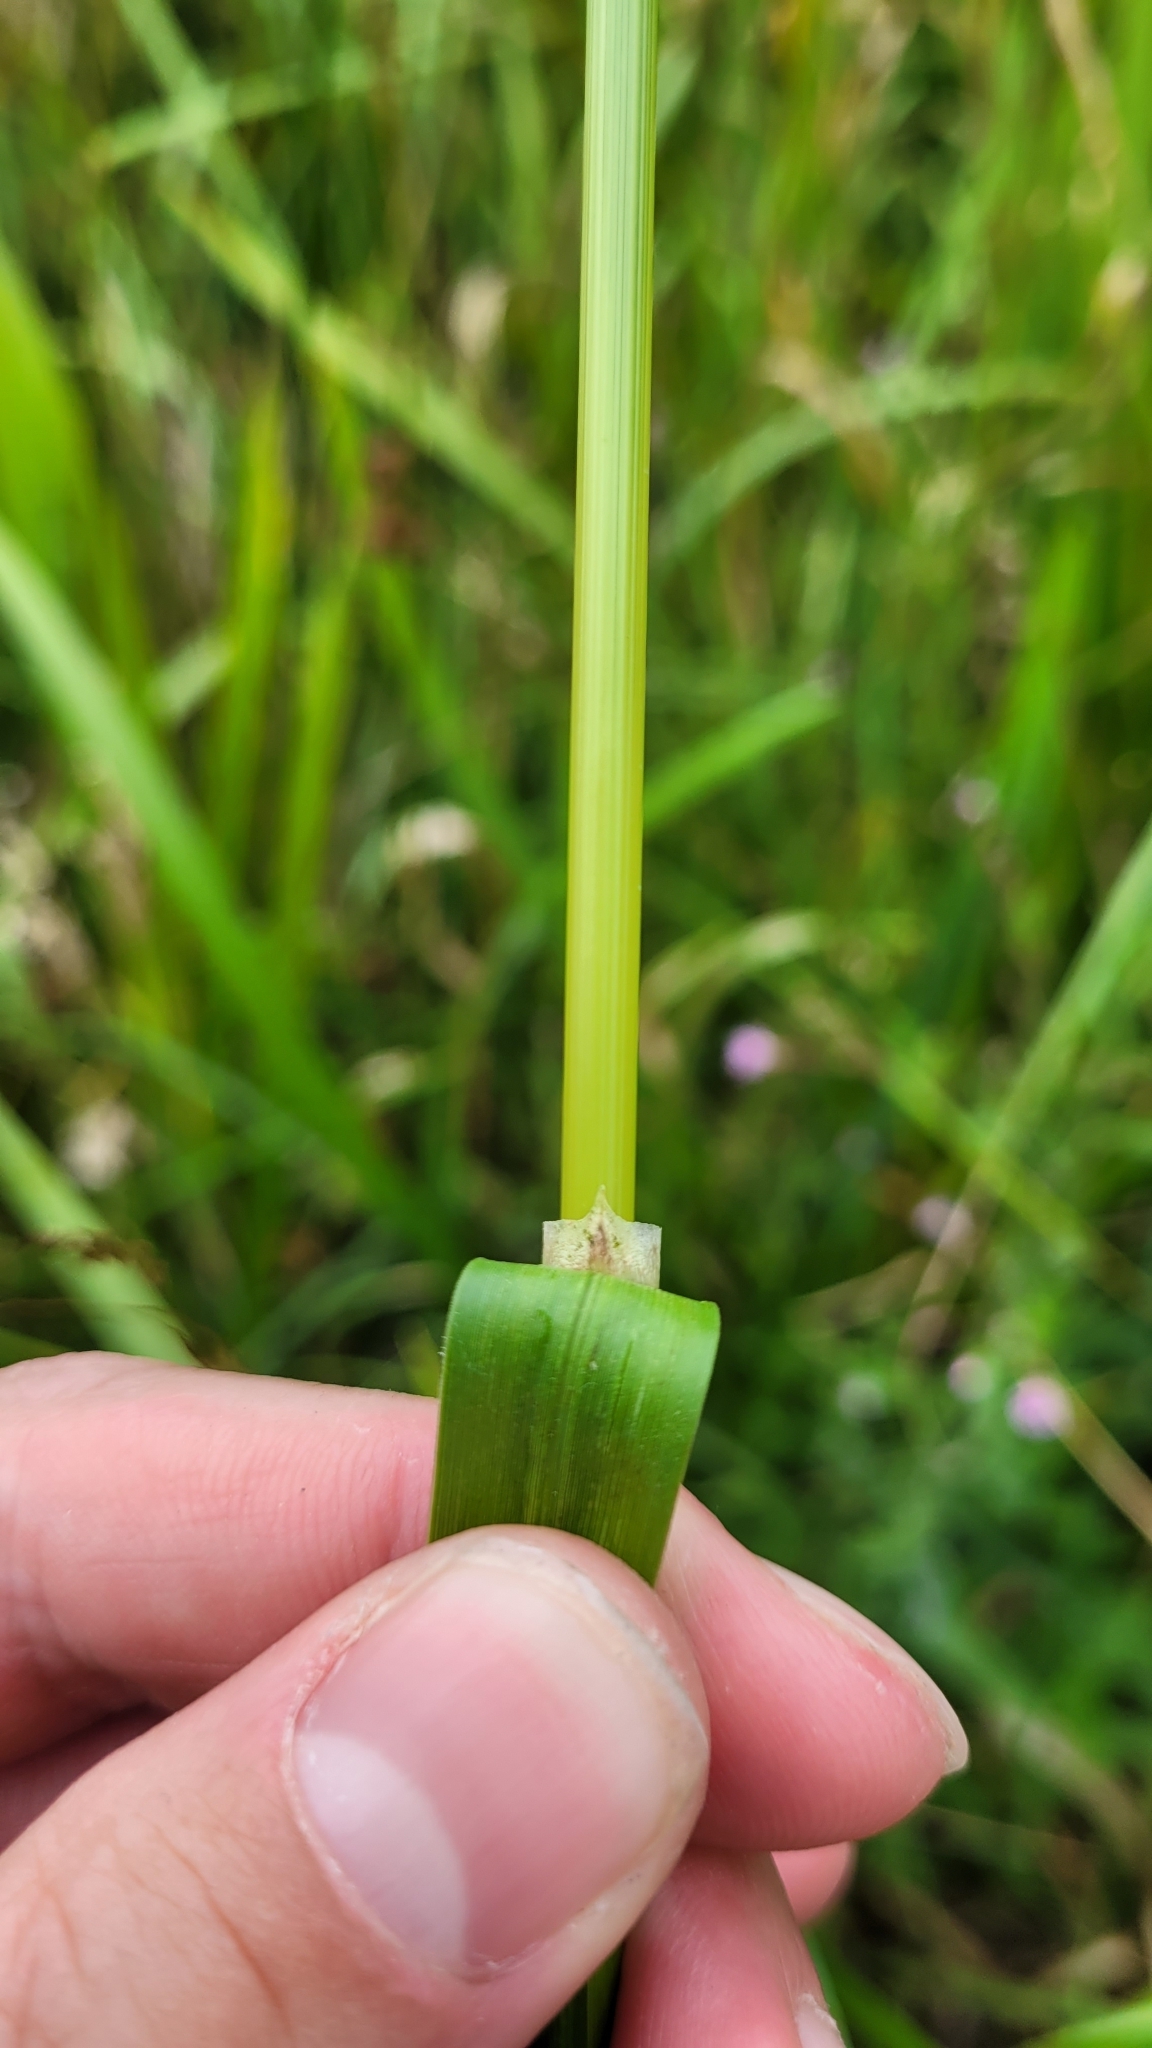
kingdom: Plantae
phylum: Tracheophyta
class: Liliopsida
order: Poales
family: Poaceae
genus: Glyceria
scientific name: Glyceria maxima
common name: Reed mannagrass
